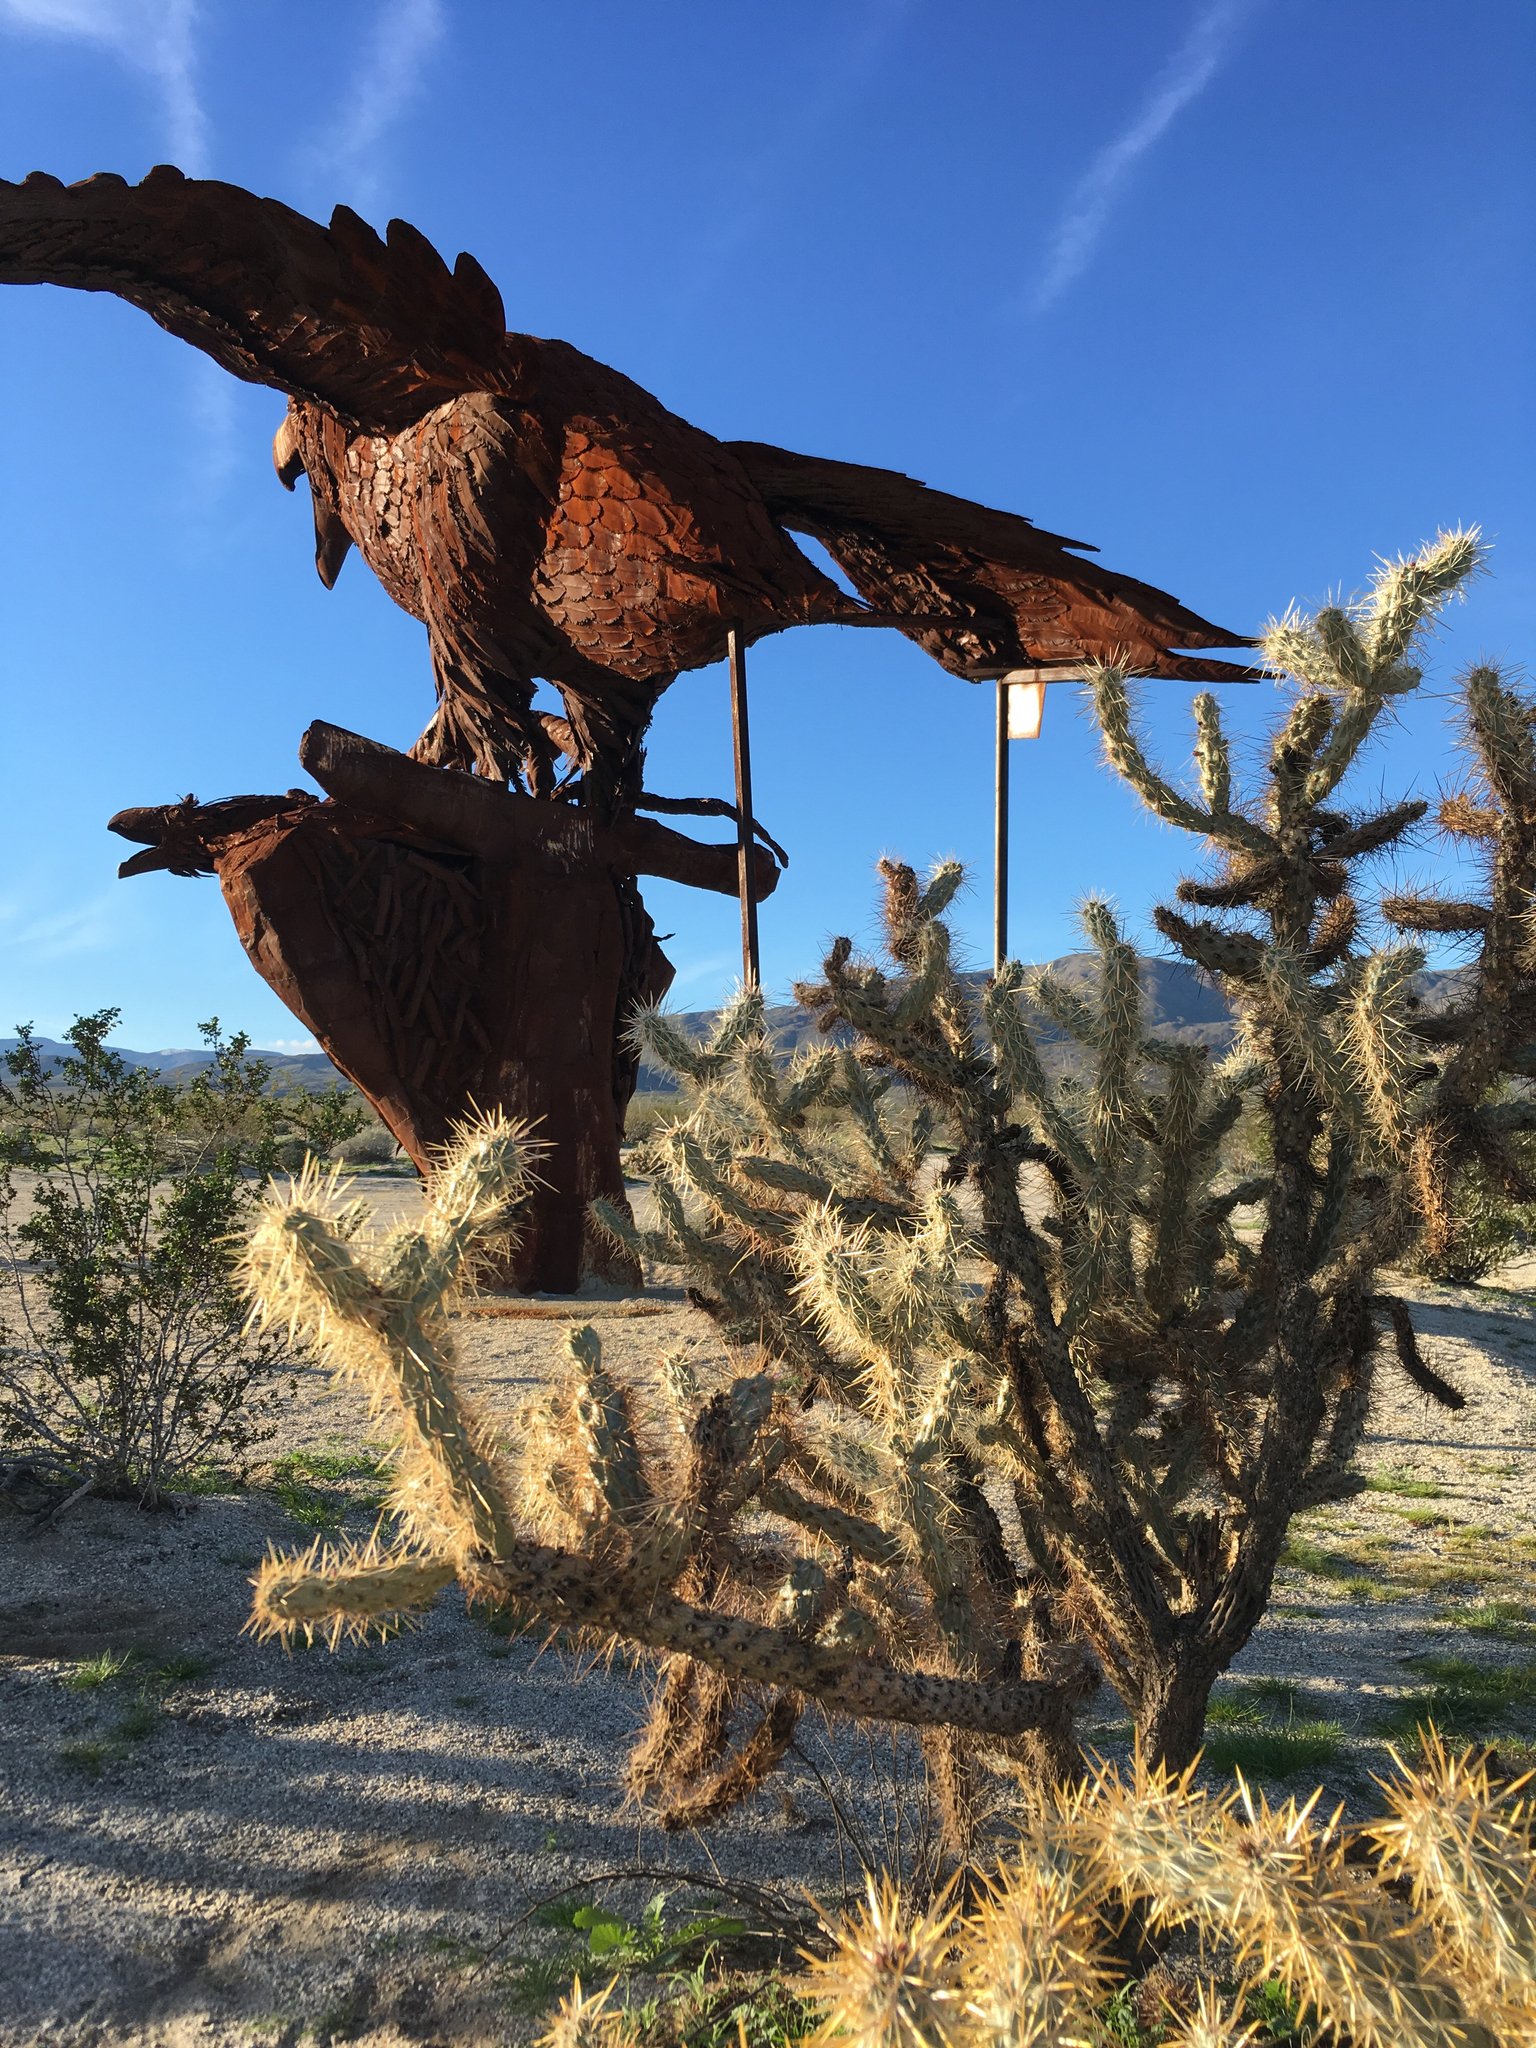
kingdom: Plantae
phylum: Tracheophyta
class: Magnoliopsida
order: Caryophyllales
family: Cactaceae
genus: Cylindropuntia
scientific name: Cylindropuntia ganderi
